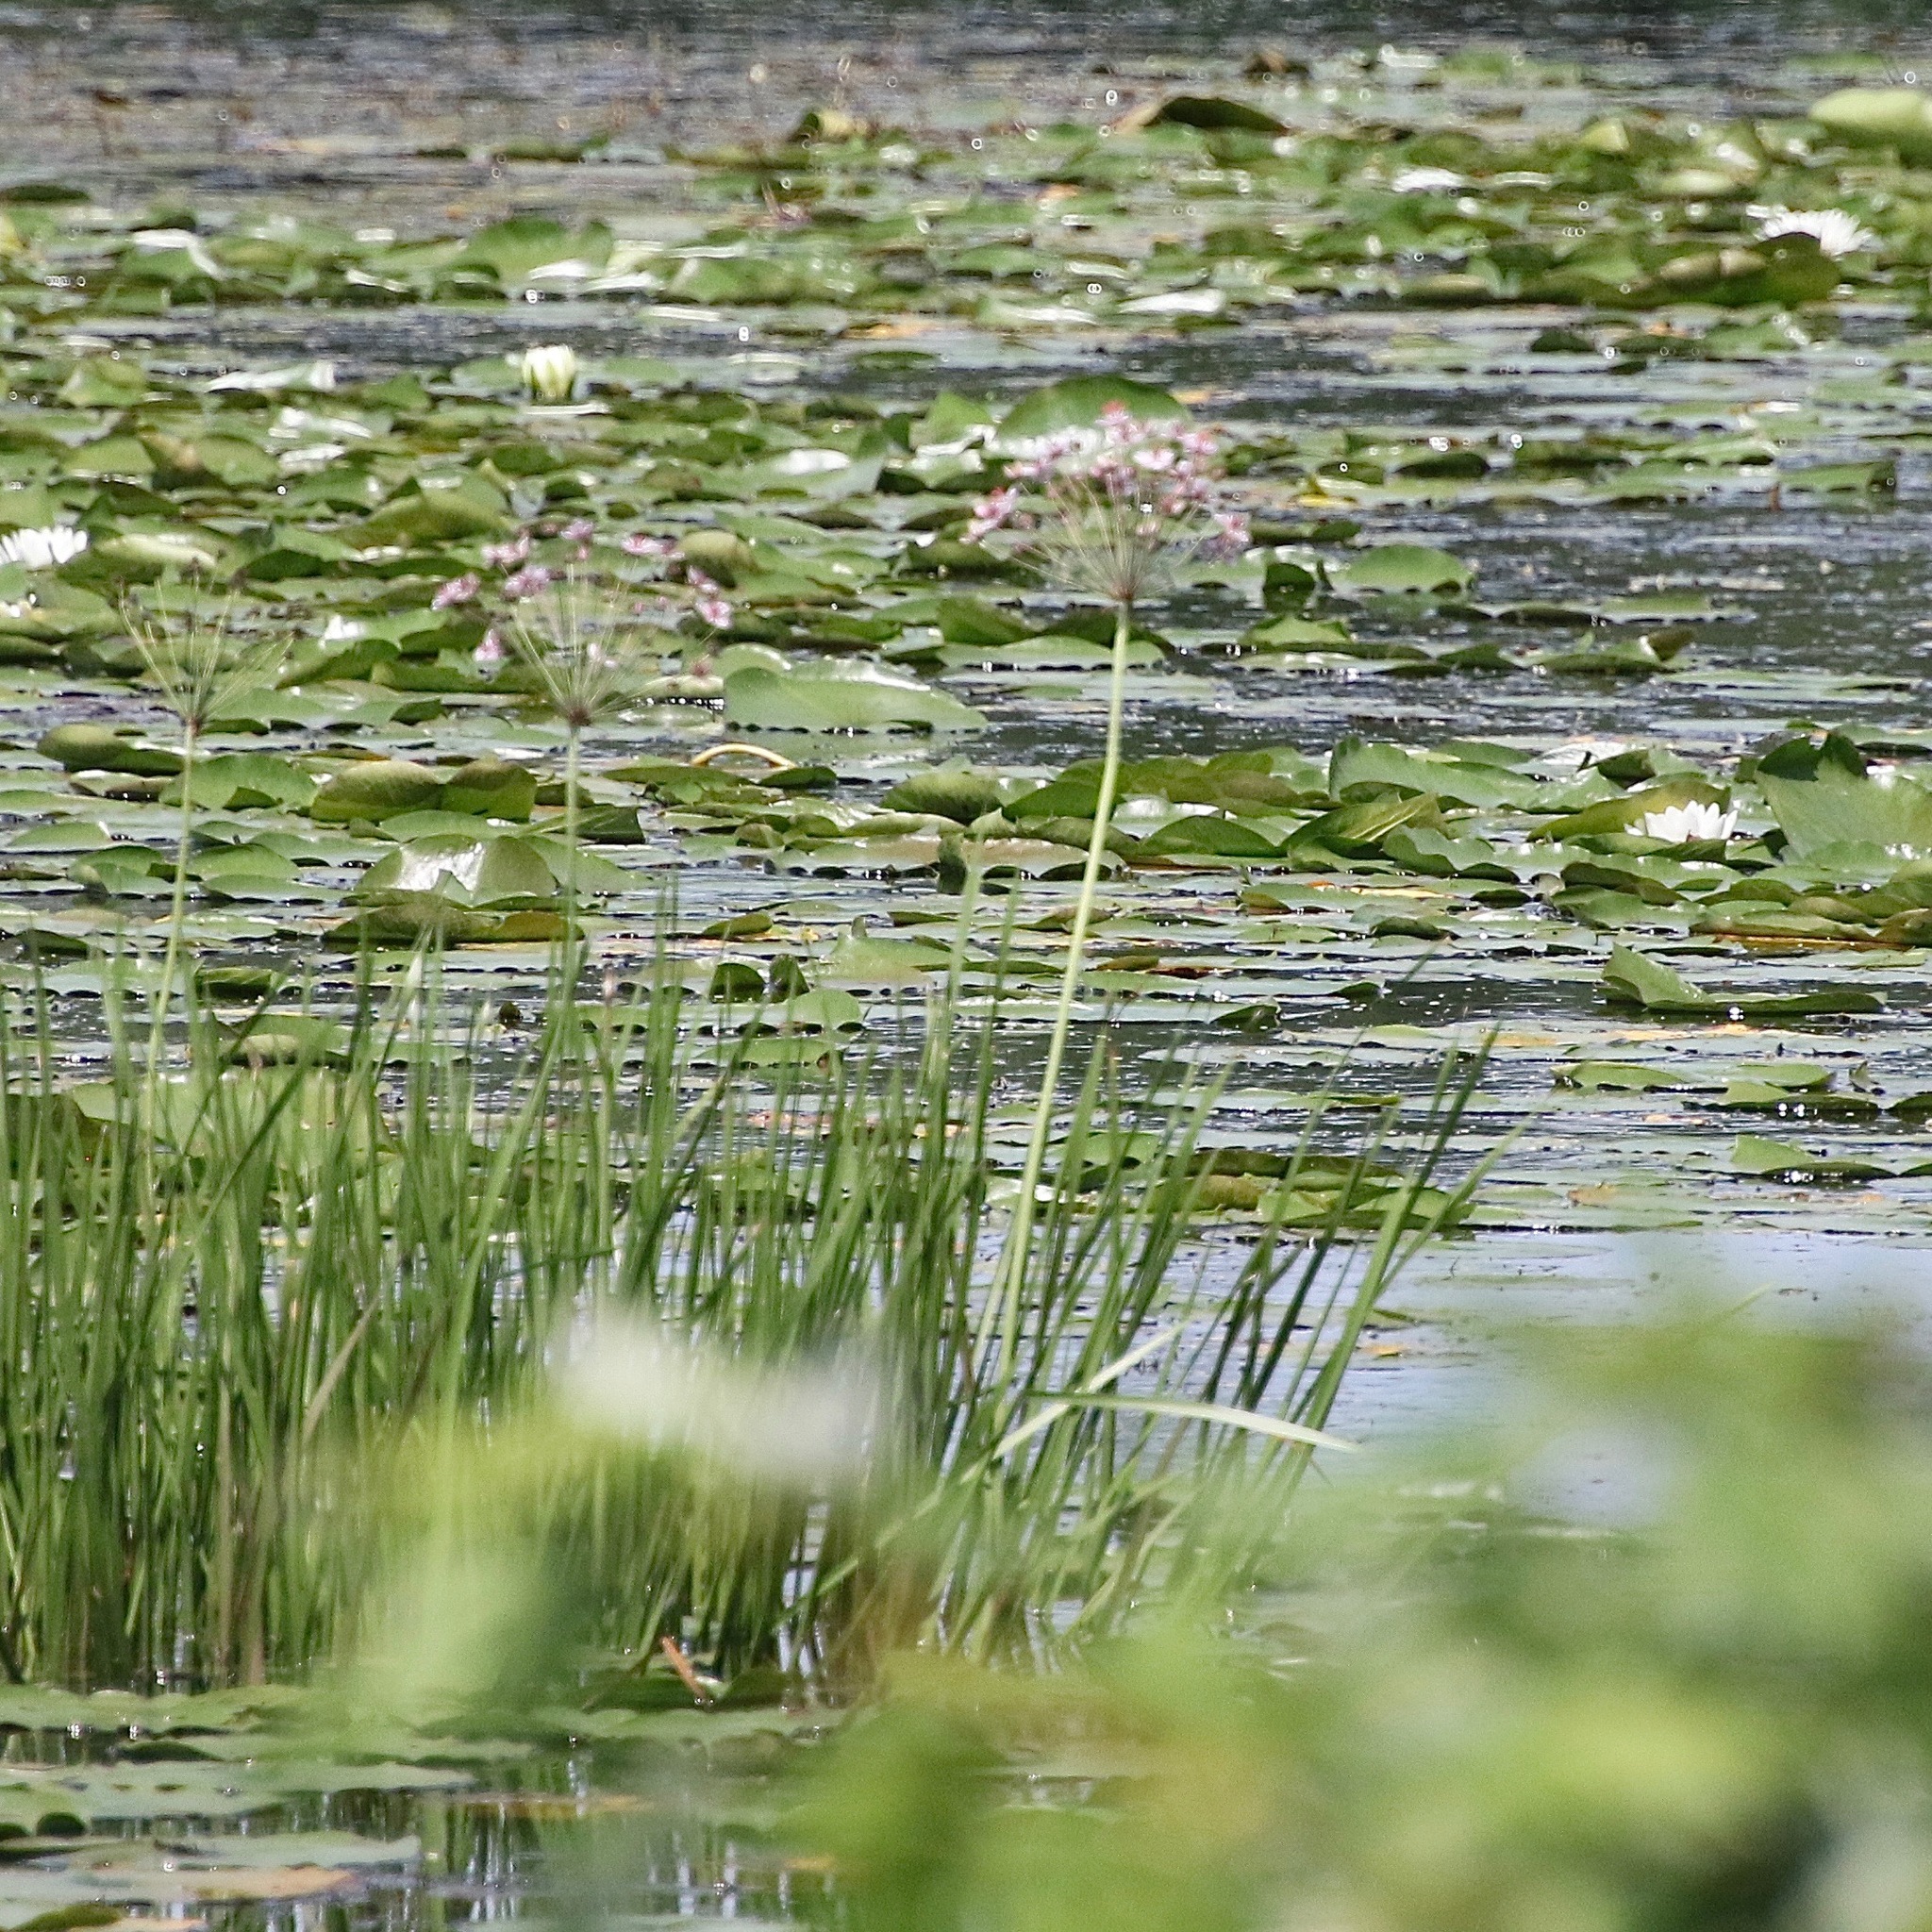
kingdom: Plantae
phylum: Tracheophyta
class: Liliopsida
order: Alismatales
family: Butomaceae
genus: Butomus
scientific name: Butomus umbellatus
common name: Flowering-rush
